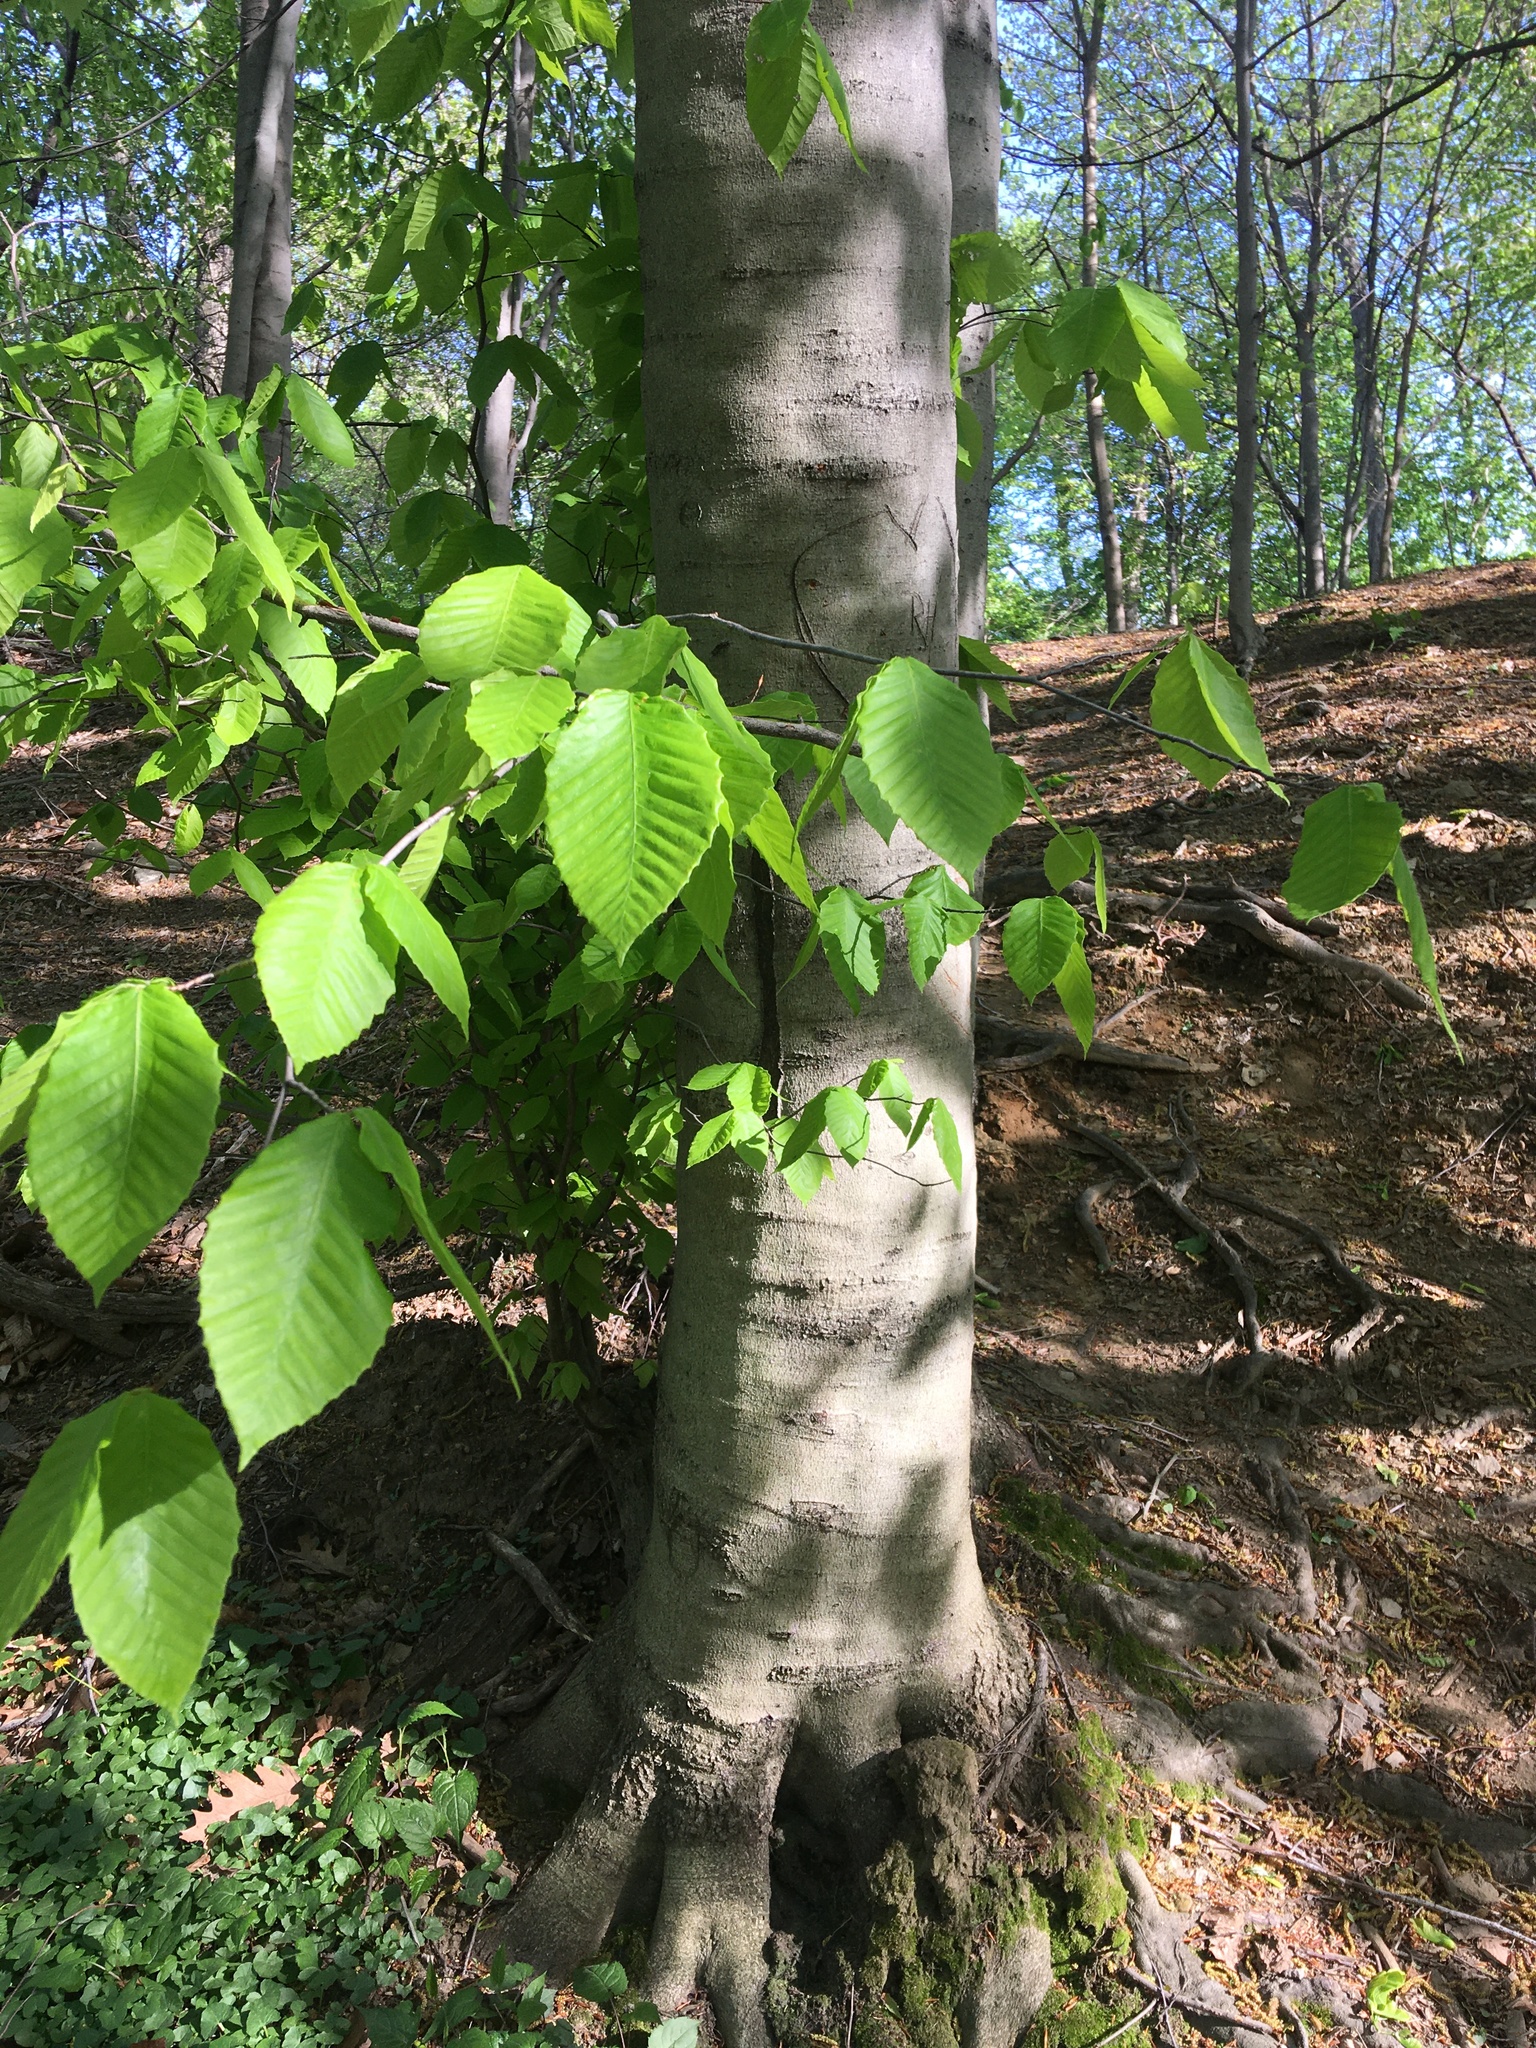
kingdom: Plantae
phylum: Tracheophyta
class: Magnoliopsida
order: Fagales
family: Fagaceae
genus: Fagus
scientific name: Fagus grandifolia
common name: American beech
